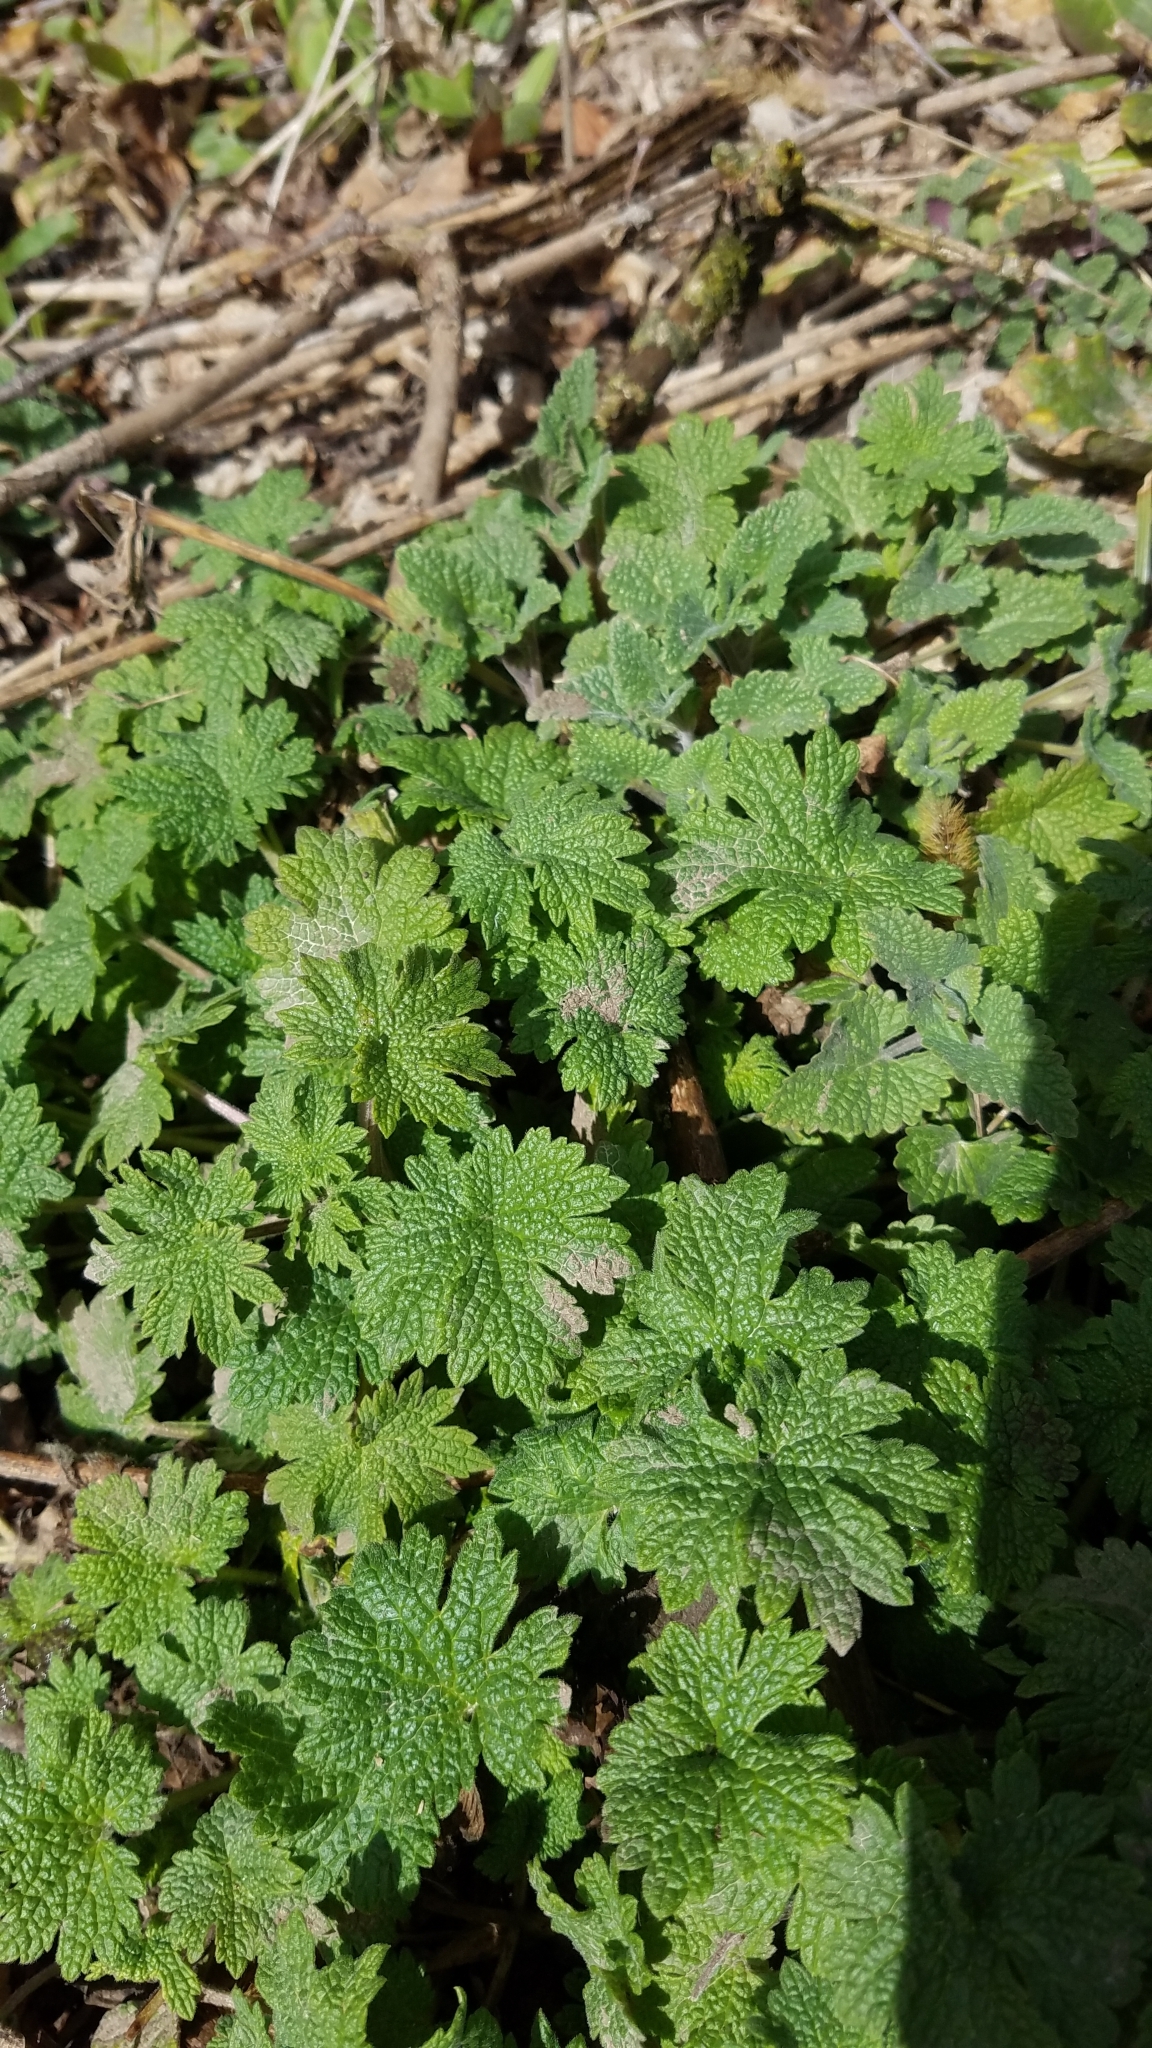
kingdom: Plantae
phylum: Tracheophyta
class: Magnoliopsida
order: Lamiales
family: Lamiaceae
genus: Leonurus
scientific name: Leonurus cardiaca
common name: Motherwort
